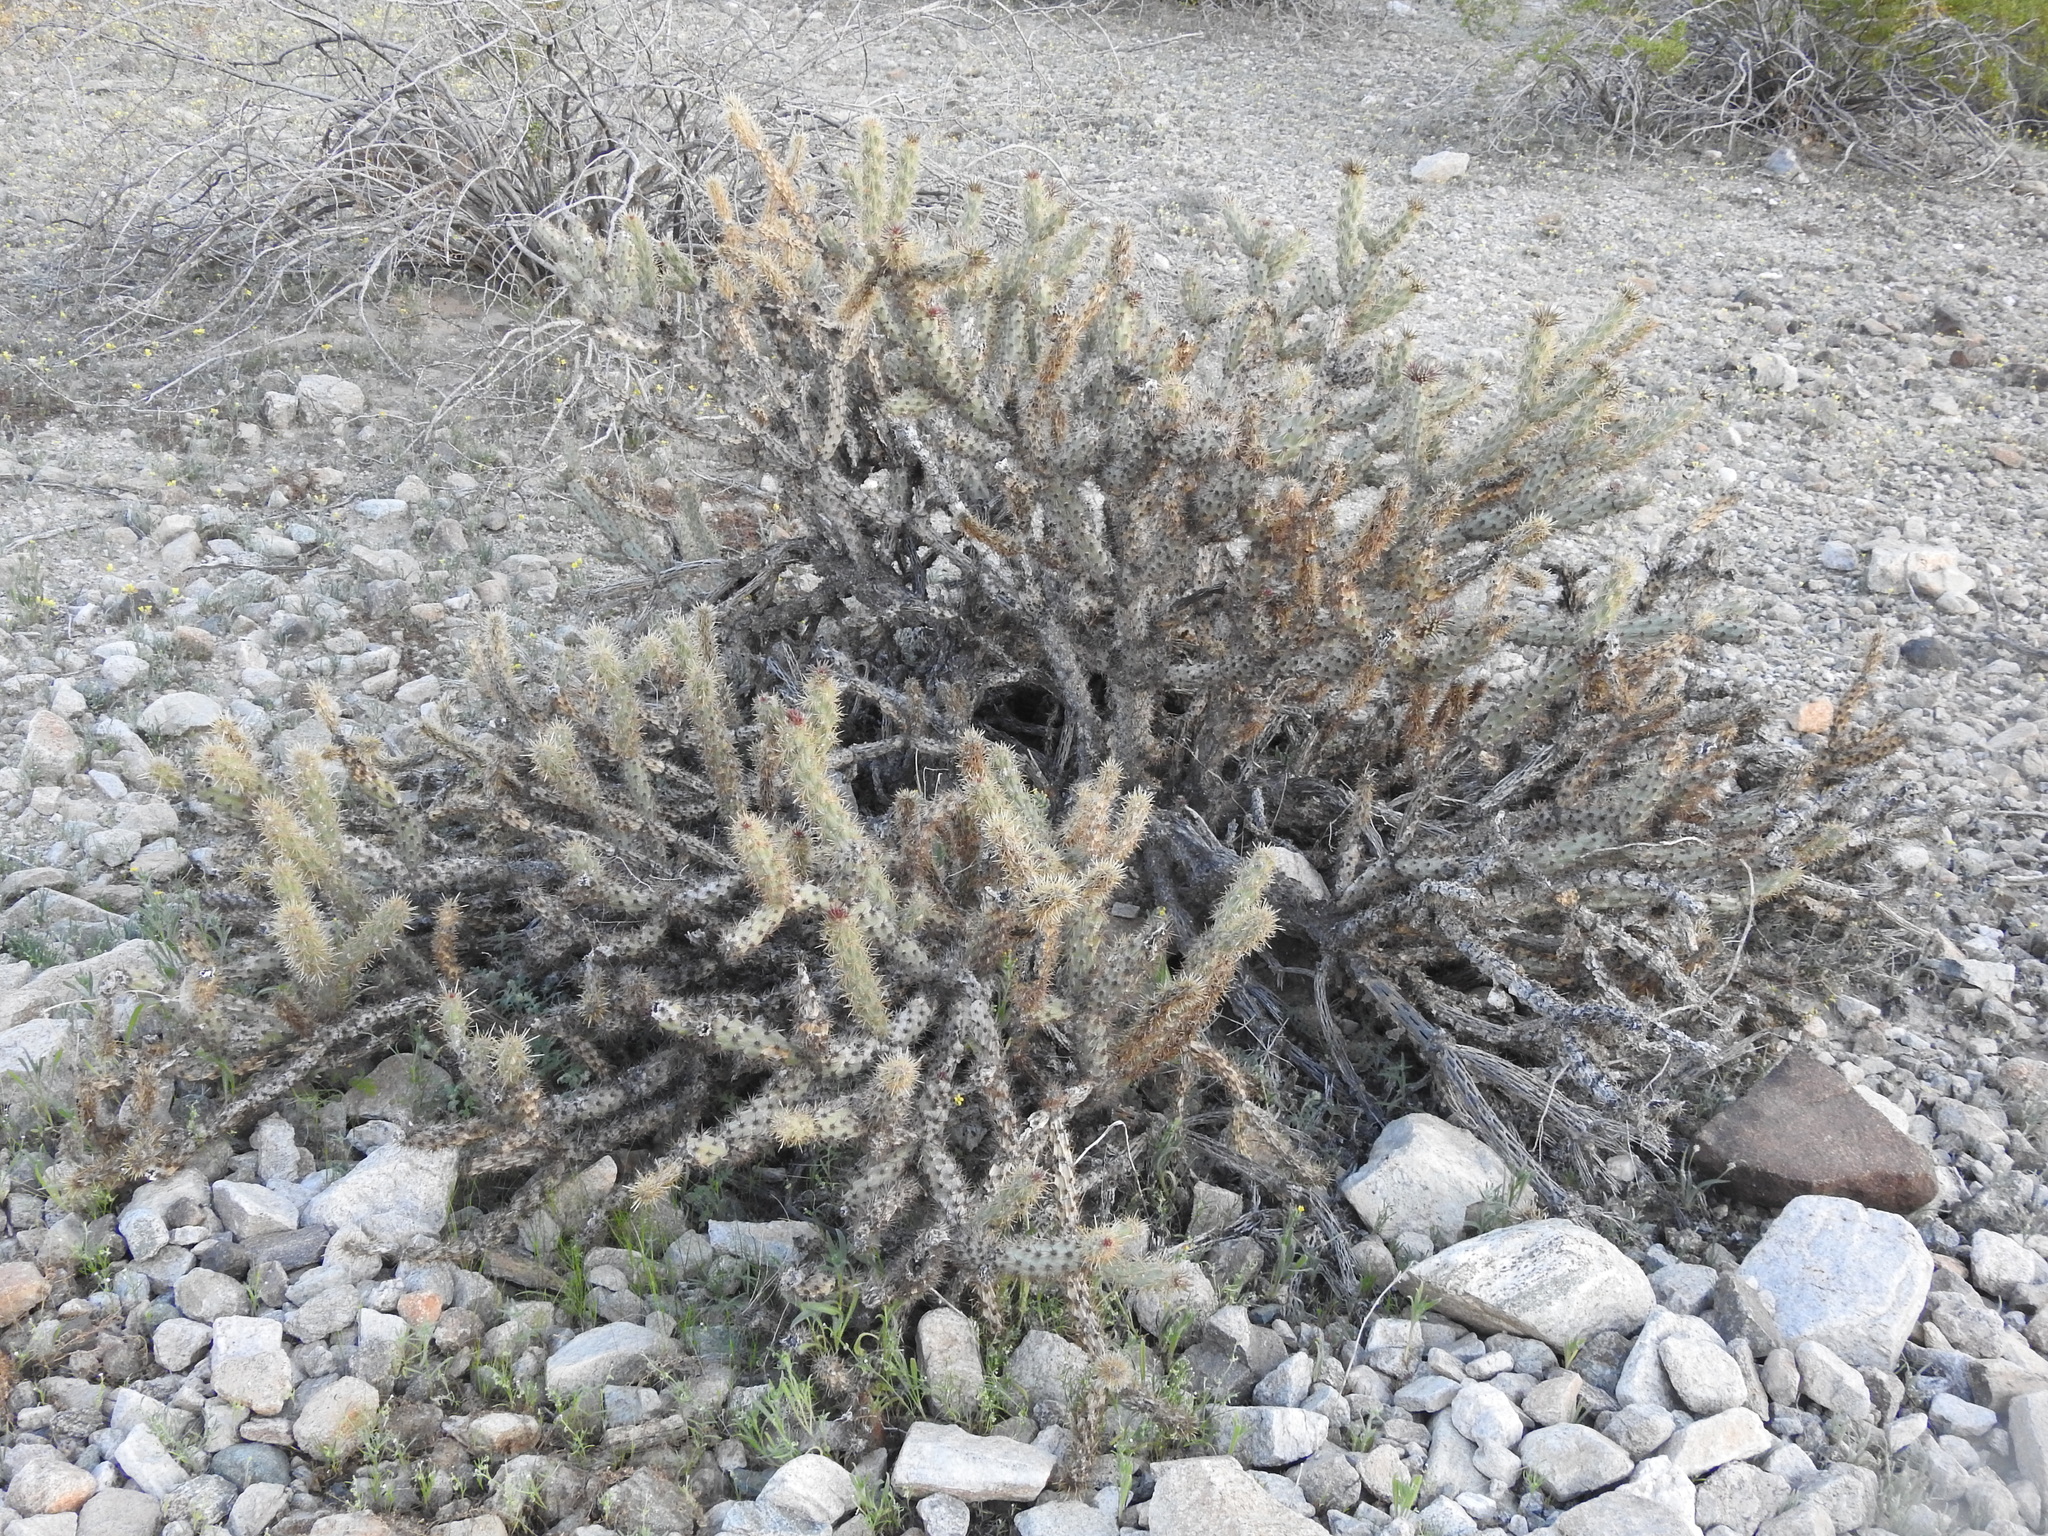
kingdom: Plantae
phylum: Tracheophyta
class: Magnoliopsida
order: Caryophyllales
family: Cactaceae
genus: Cylindropuntia
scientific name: Cylindropuntia acanthocarpa
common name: Buckhorn cholla
